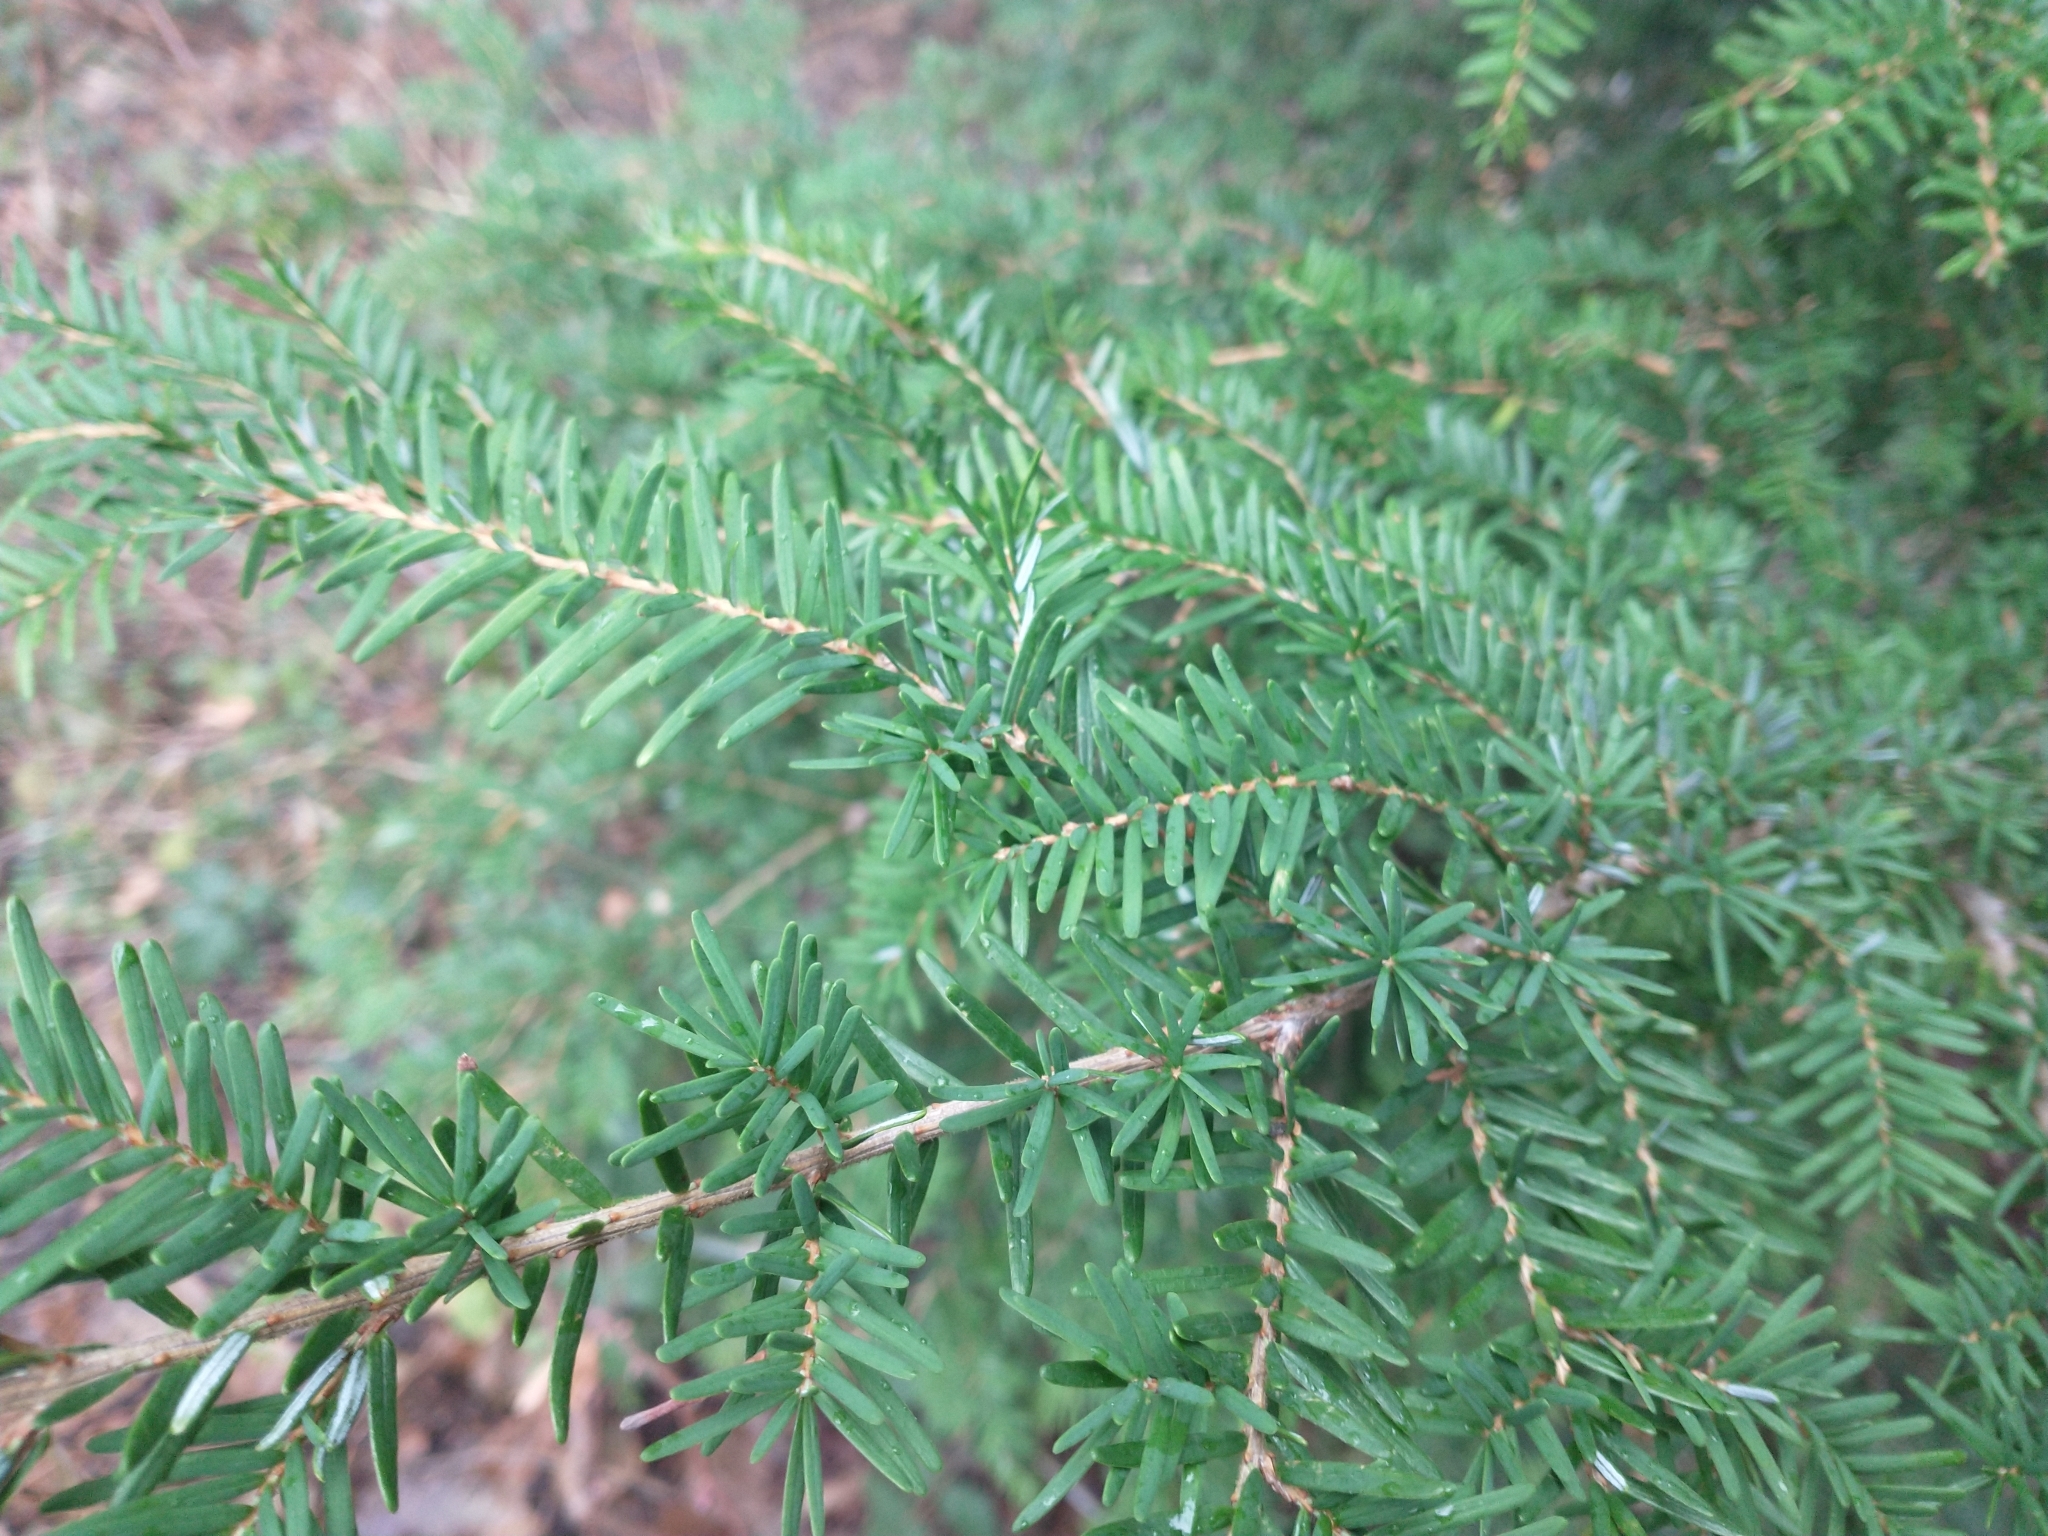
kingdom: Plantae
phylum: Tracheophyta
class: Pinopsida
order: Pinales
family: Pinaceae
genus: Tsuga
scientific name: Tsuga heterophylla
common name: Western hemlock
